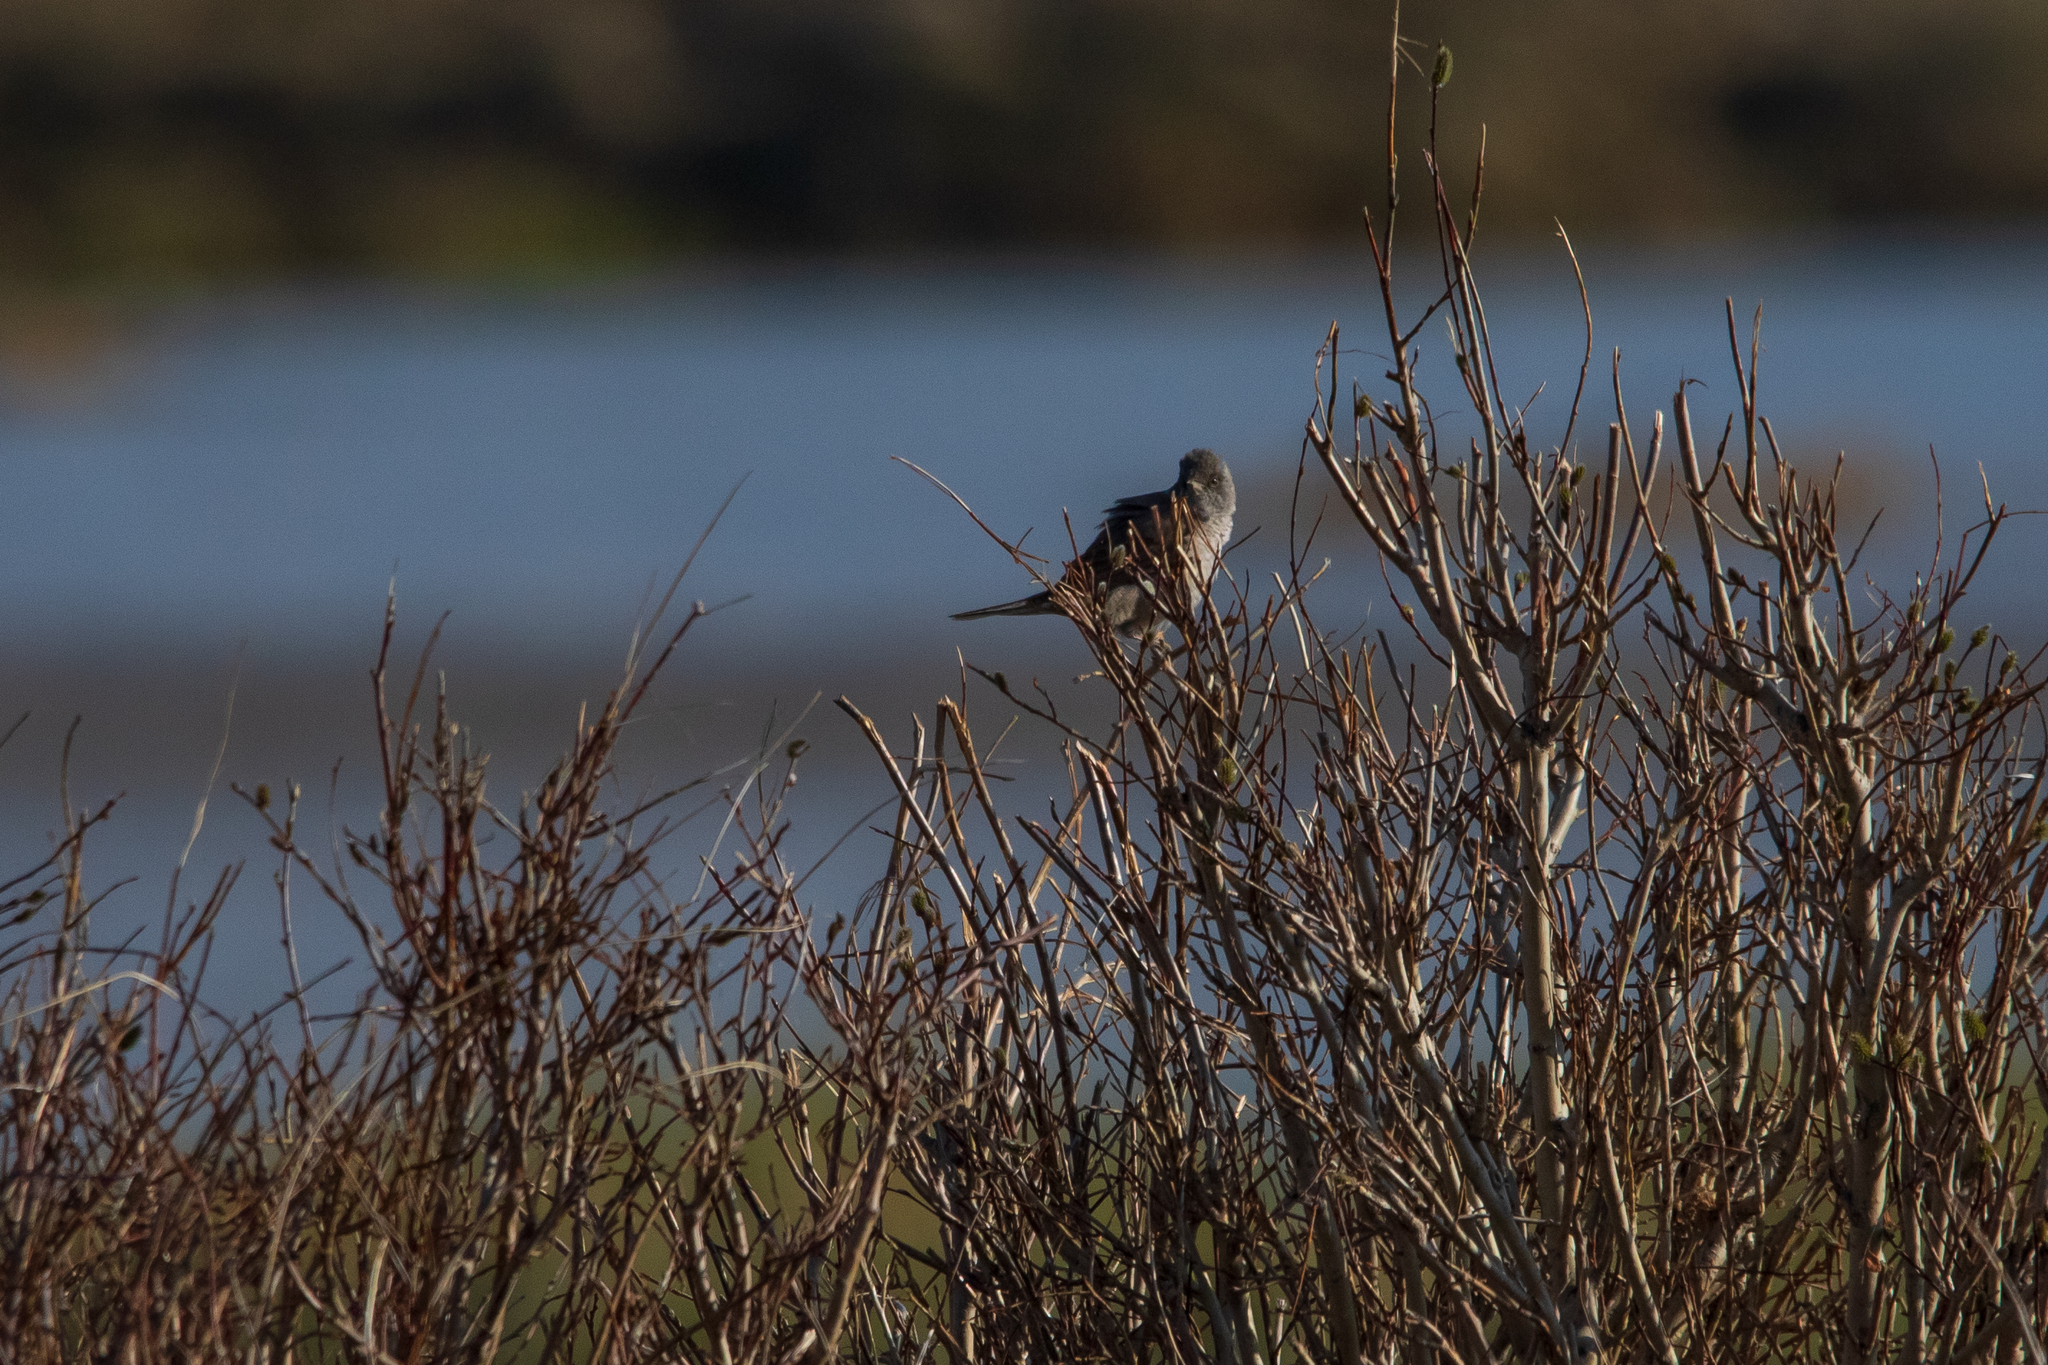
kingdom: Animalia
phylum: Chordata
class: Aves
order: Passeriformes
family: Sylviidae
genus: Sylvia
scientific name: Sylvia nisoria
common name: Barred warbler
